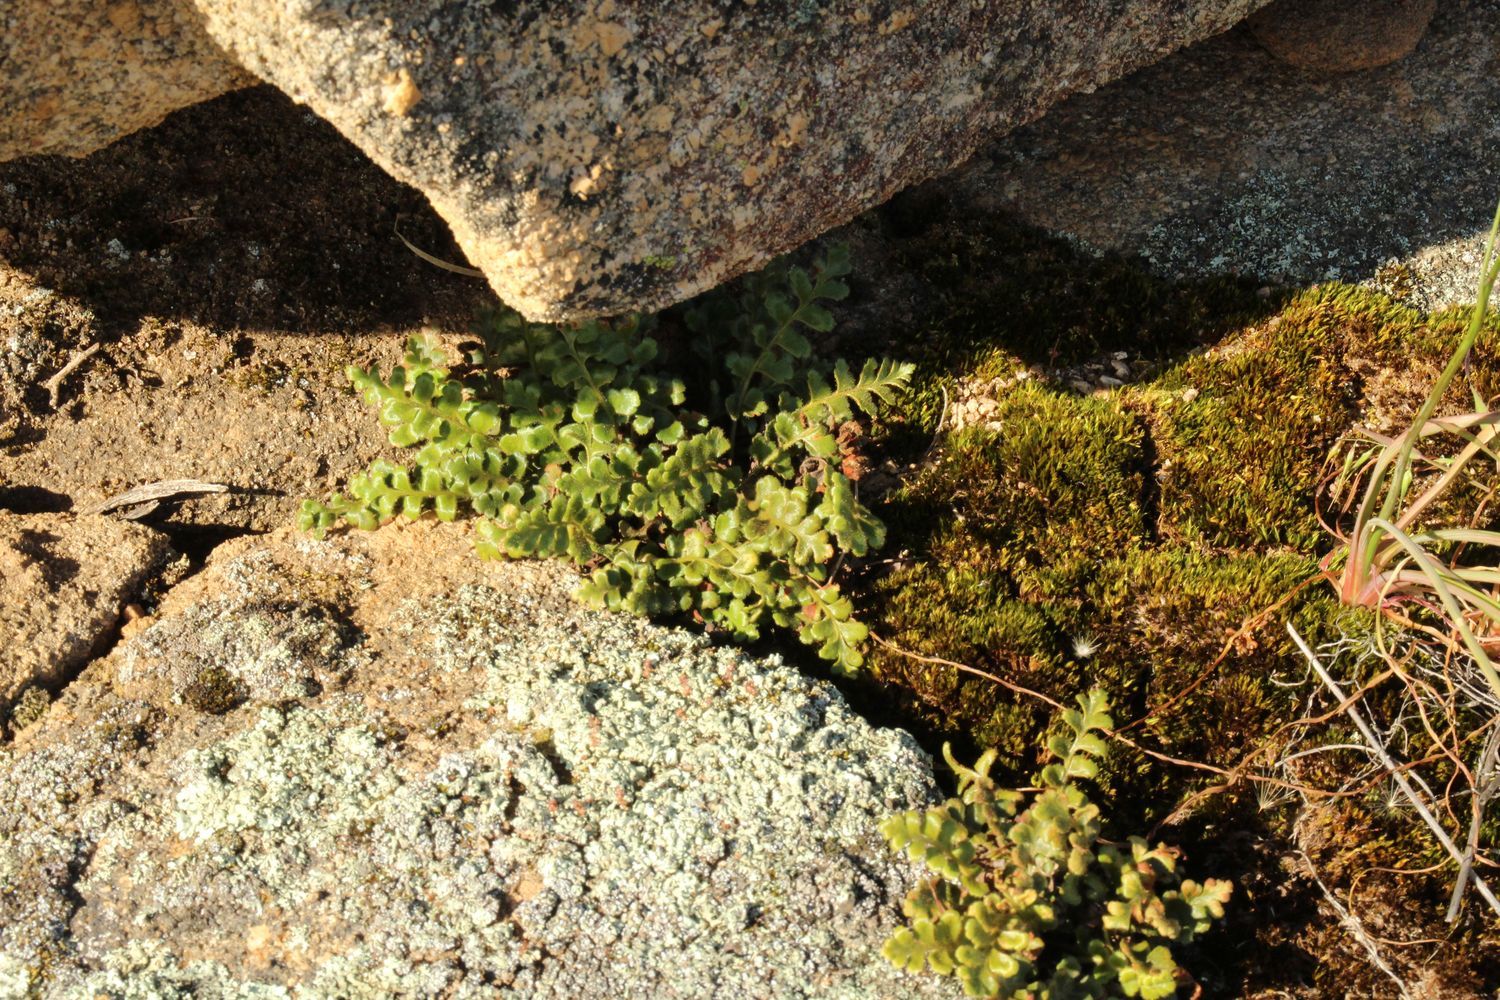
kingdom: Plantae
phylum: Tracheophyta
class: Polypodiopsida
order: Polypodiales
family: Aspleniaceae
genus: Asplenium
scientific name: Asplenium subglandulosum
